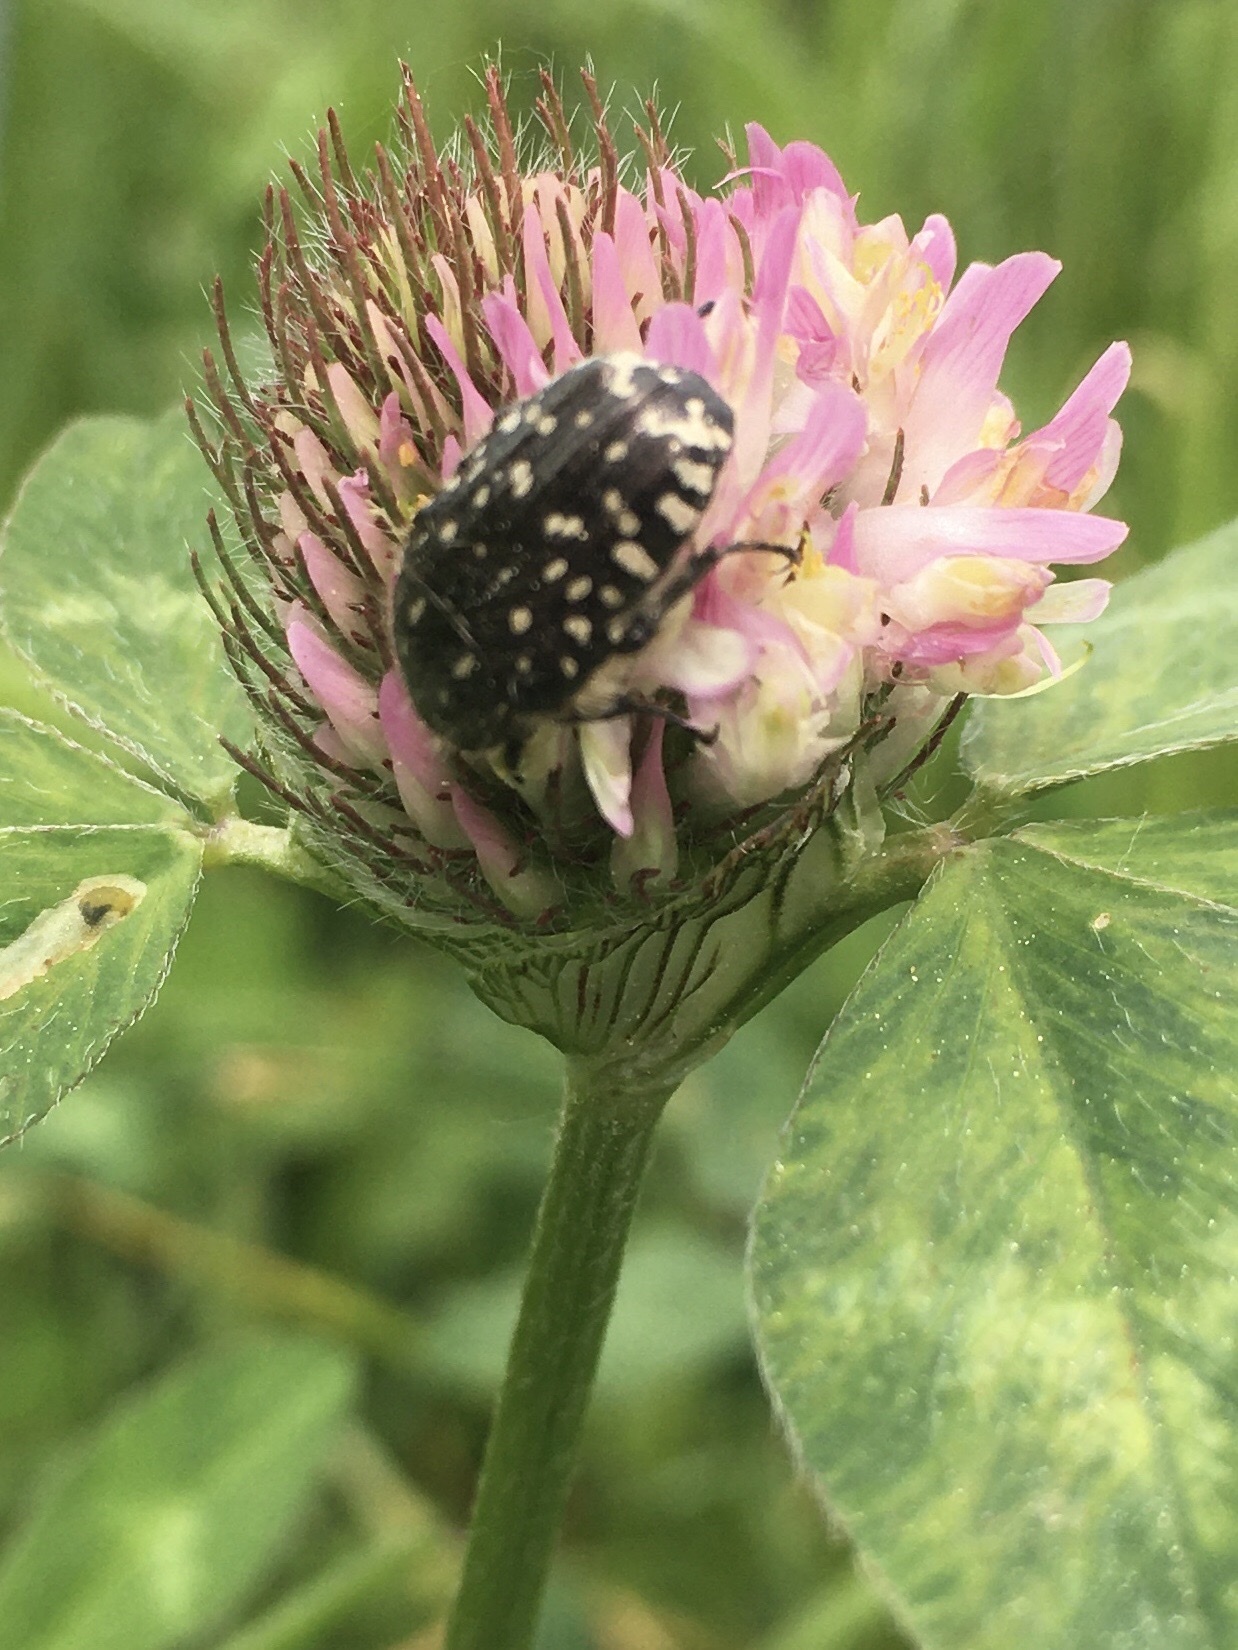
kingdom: Animalia
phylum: Arthropoda
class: Insecta
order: Coleoptera
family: Scarabaeidae
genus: Oxythyrea
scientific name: Oxythyrea funesta
